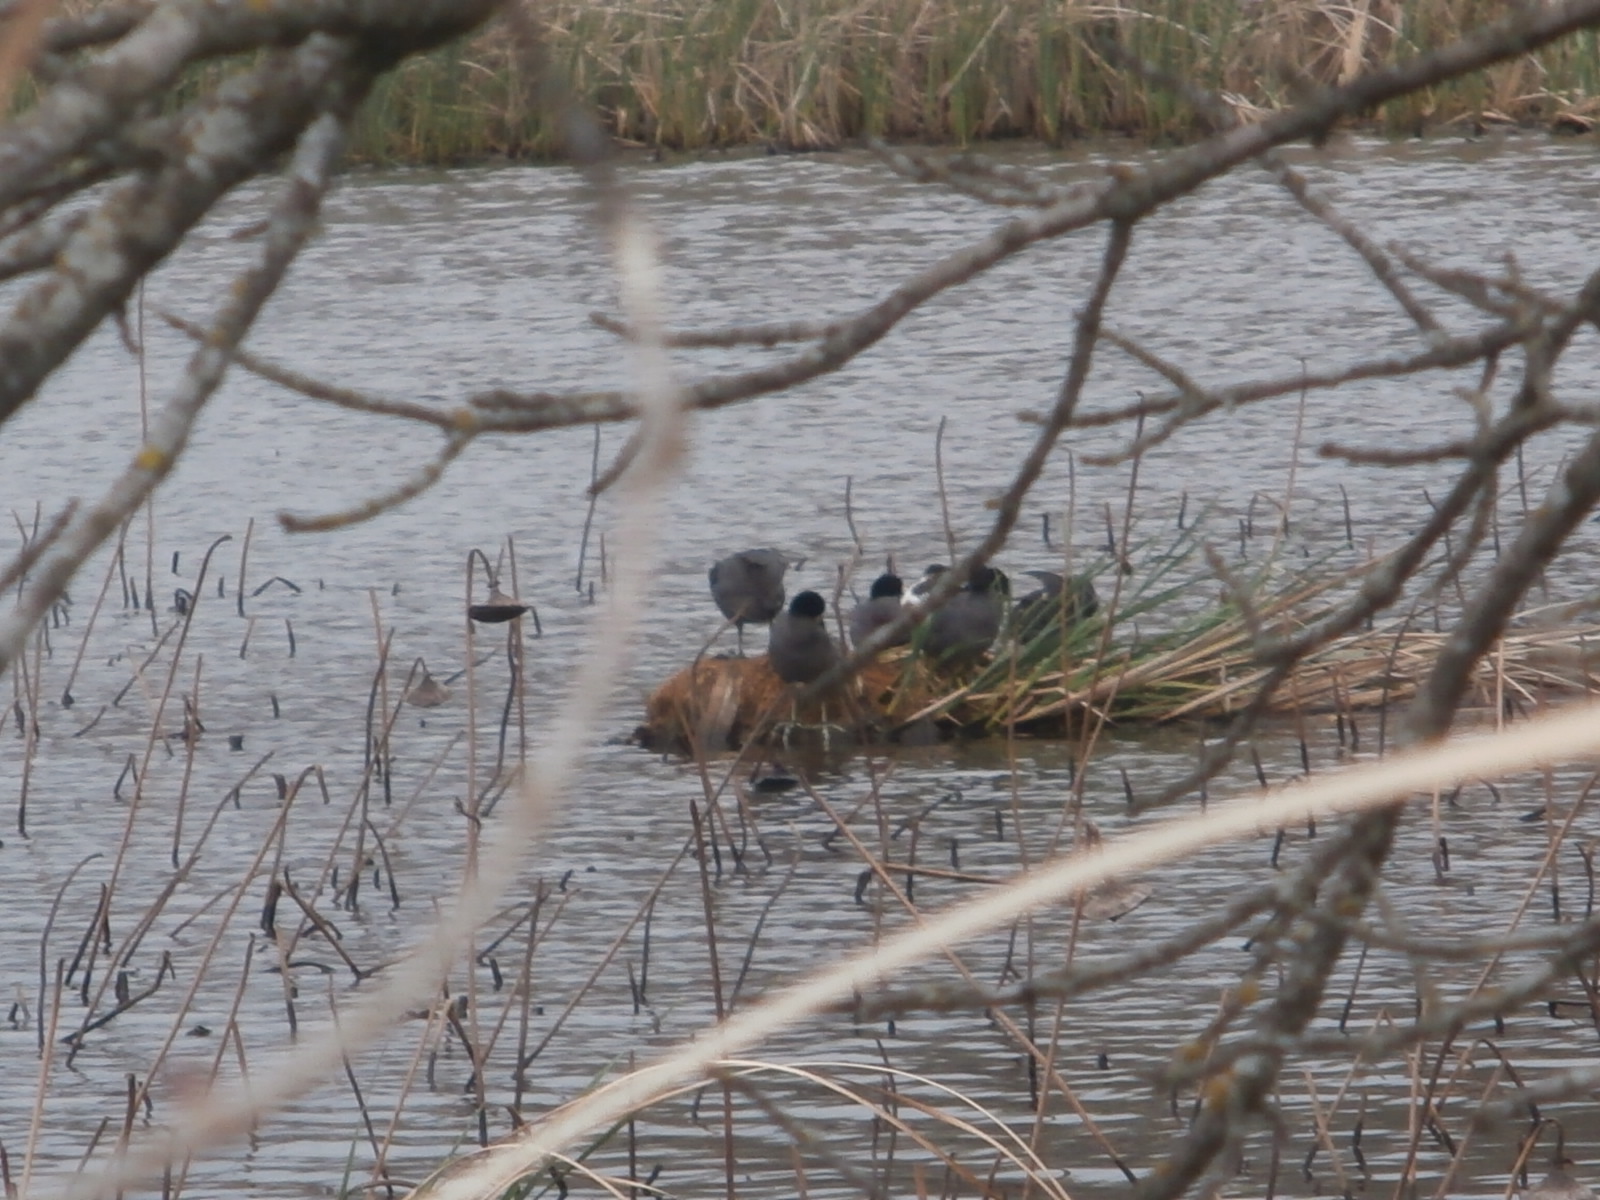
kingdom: Animalia
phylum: Chordata
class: Aves
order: Gruiformes
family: Rallidae
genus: Fulica
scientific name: Fulica americana
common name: American coot
